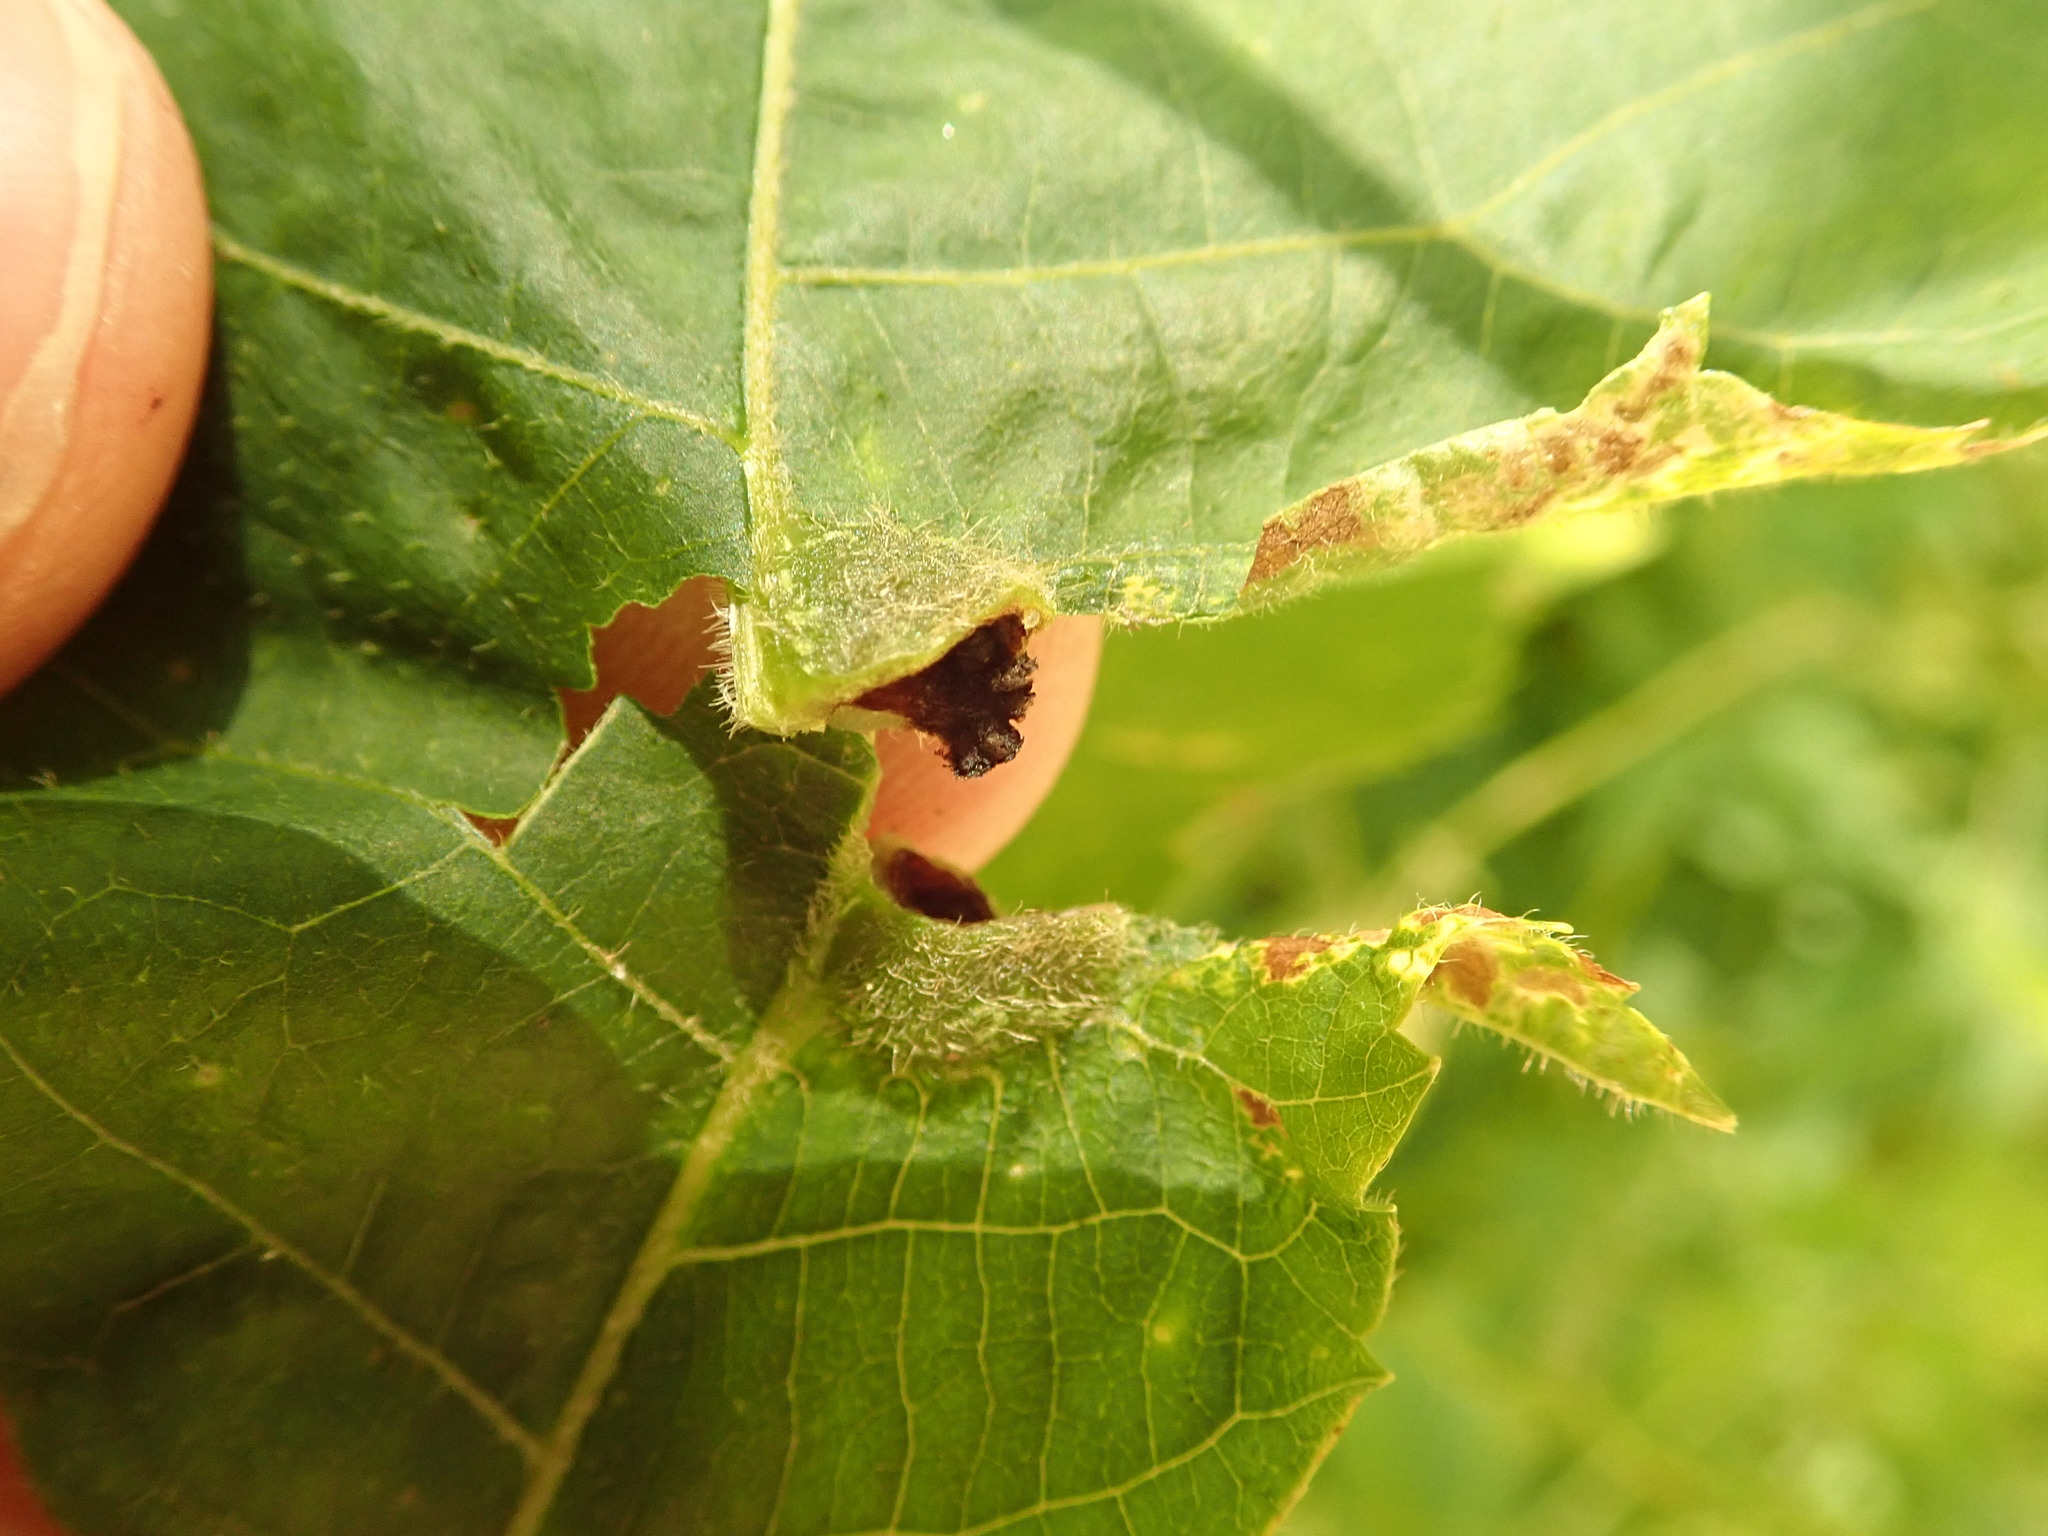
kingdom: Animalia
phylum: Arthropoda
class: Insecta
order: Hemiptera
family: Phylloxeridae
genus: Phylloxera
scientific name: Phylloxera
